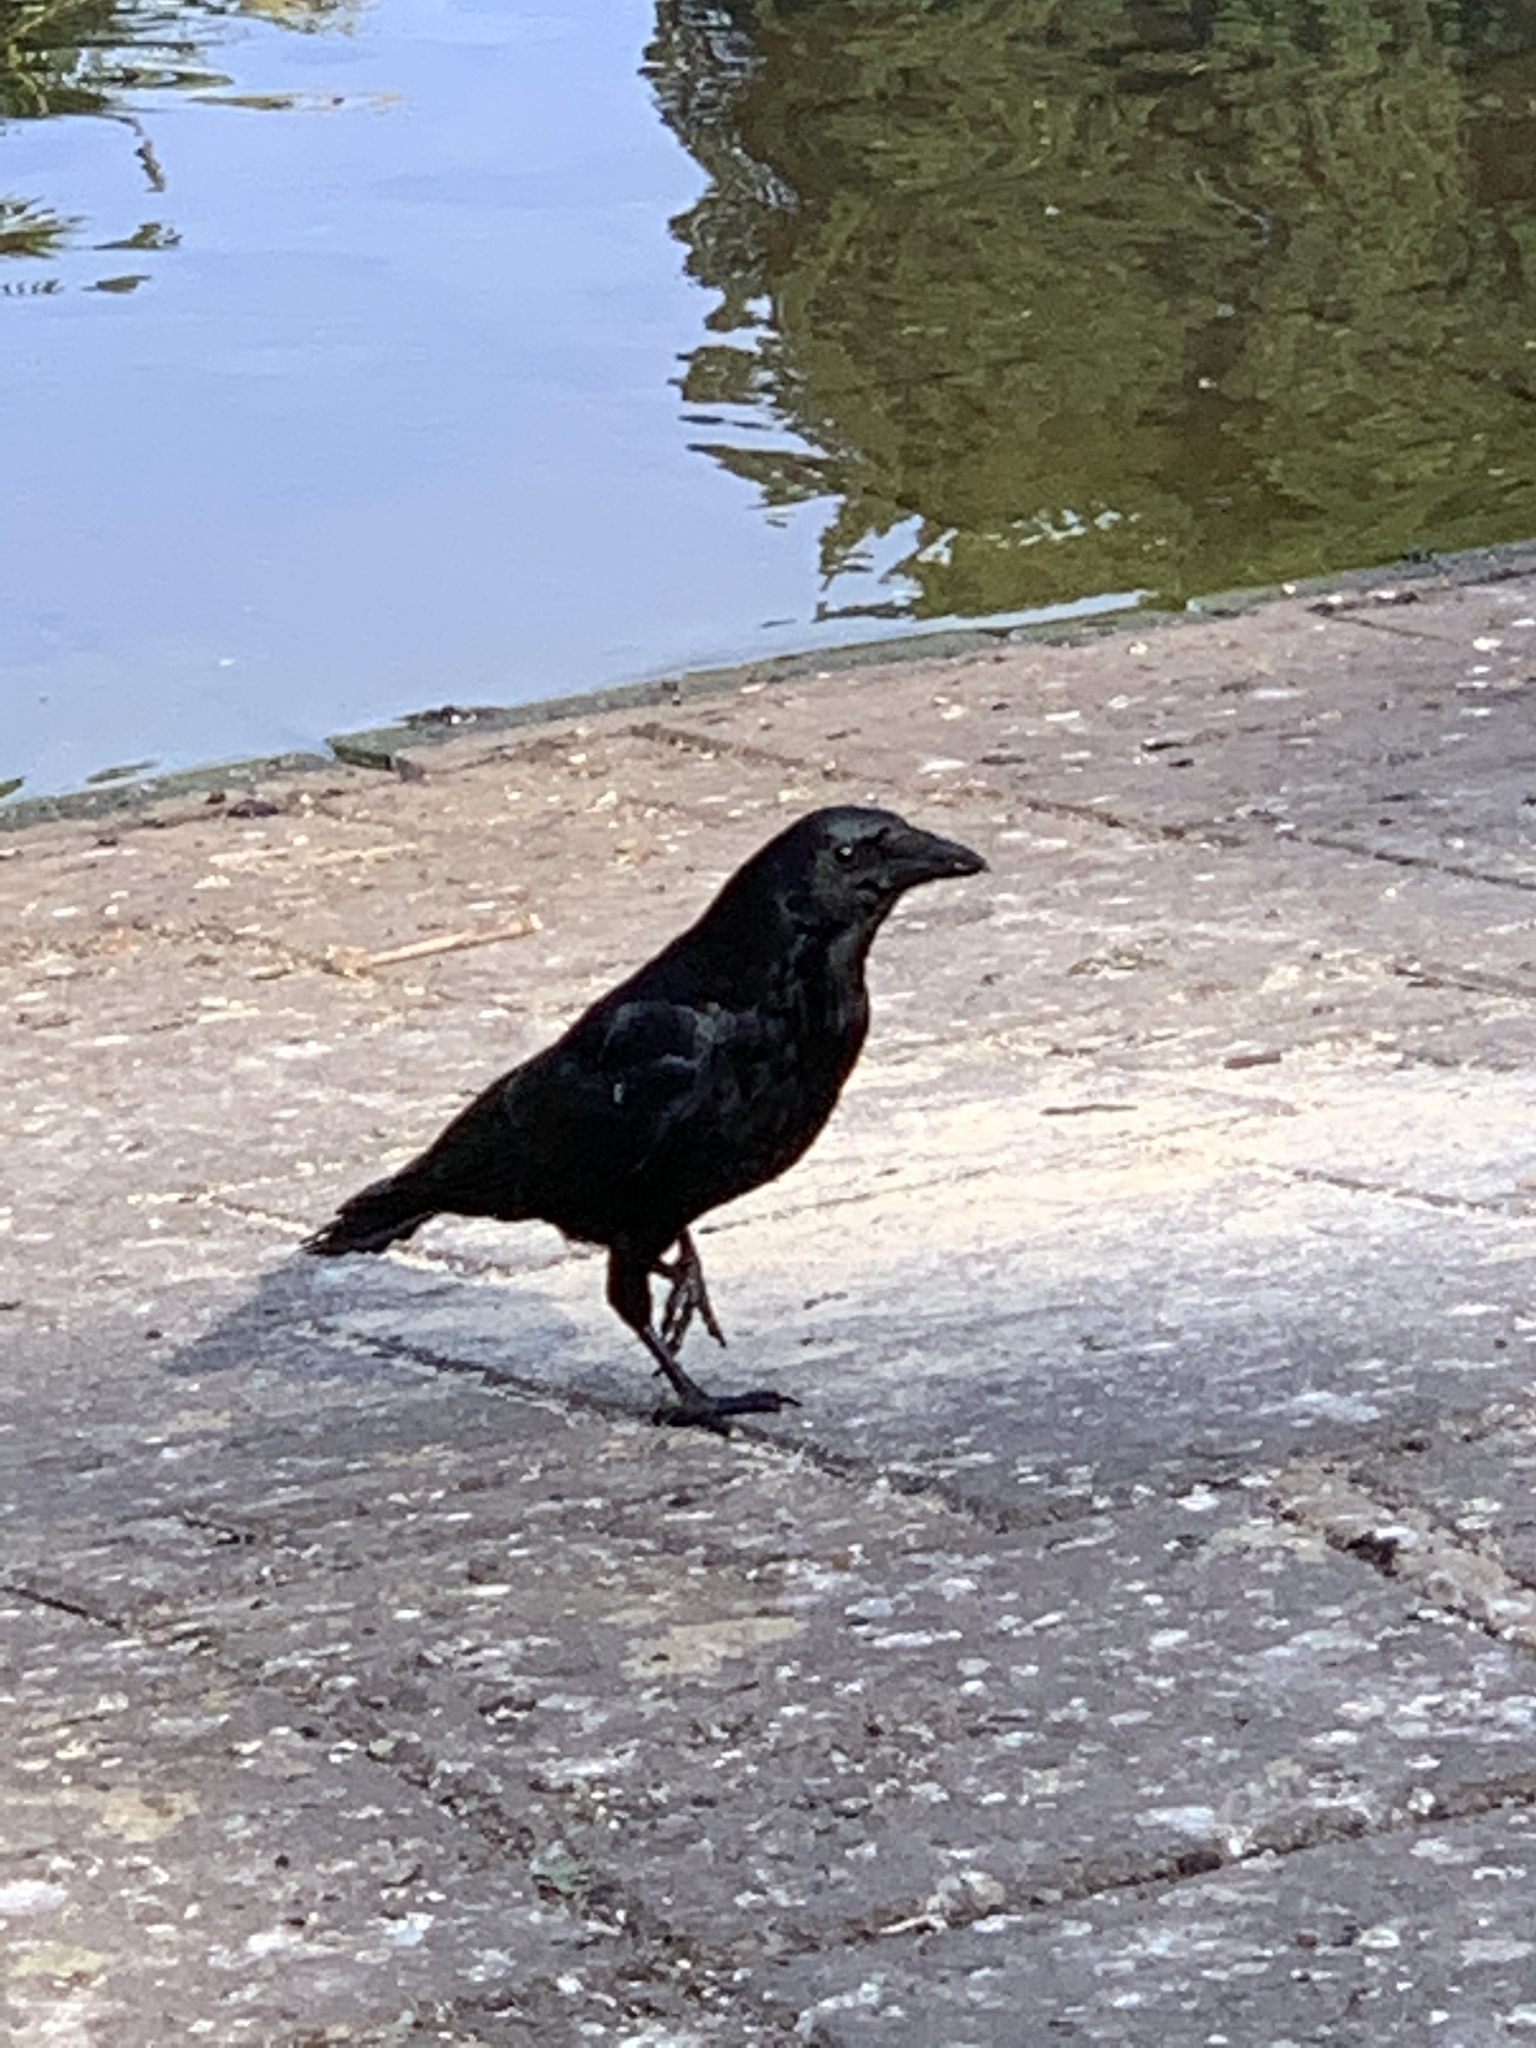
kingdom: Animalia
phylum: Chordata
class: Aves
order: Passeriformes
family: Corvidae
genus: Corvus
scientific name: Corvus corone
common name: Carrion crow
